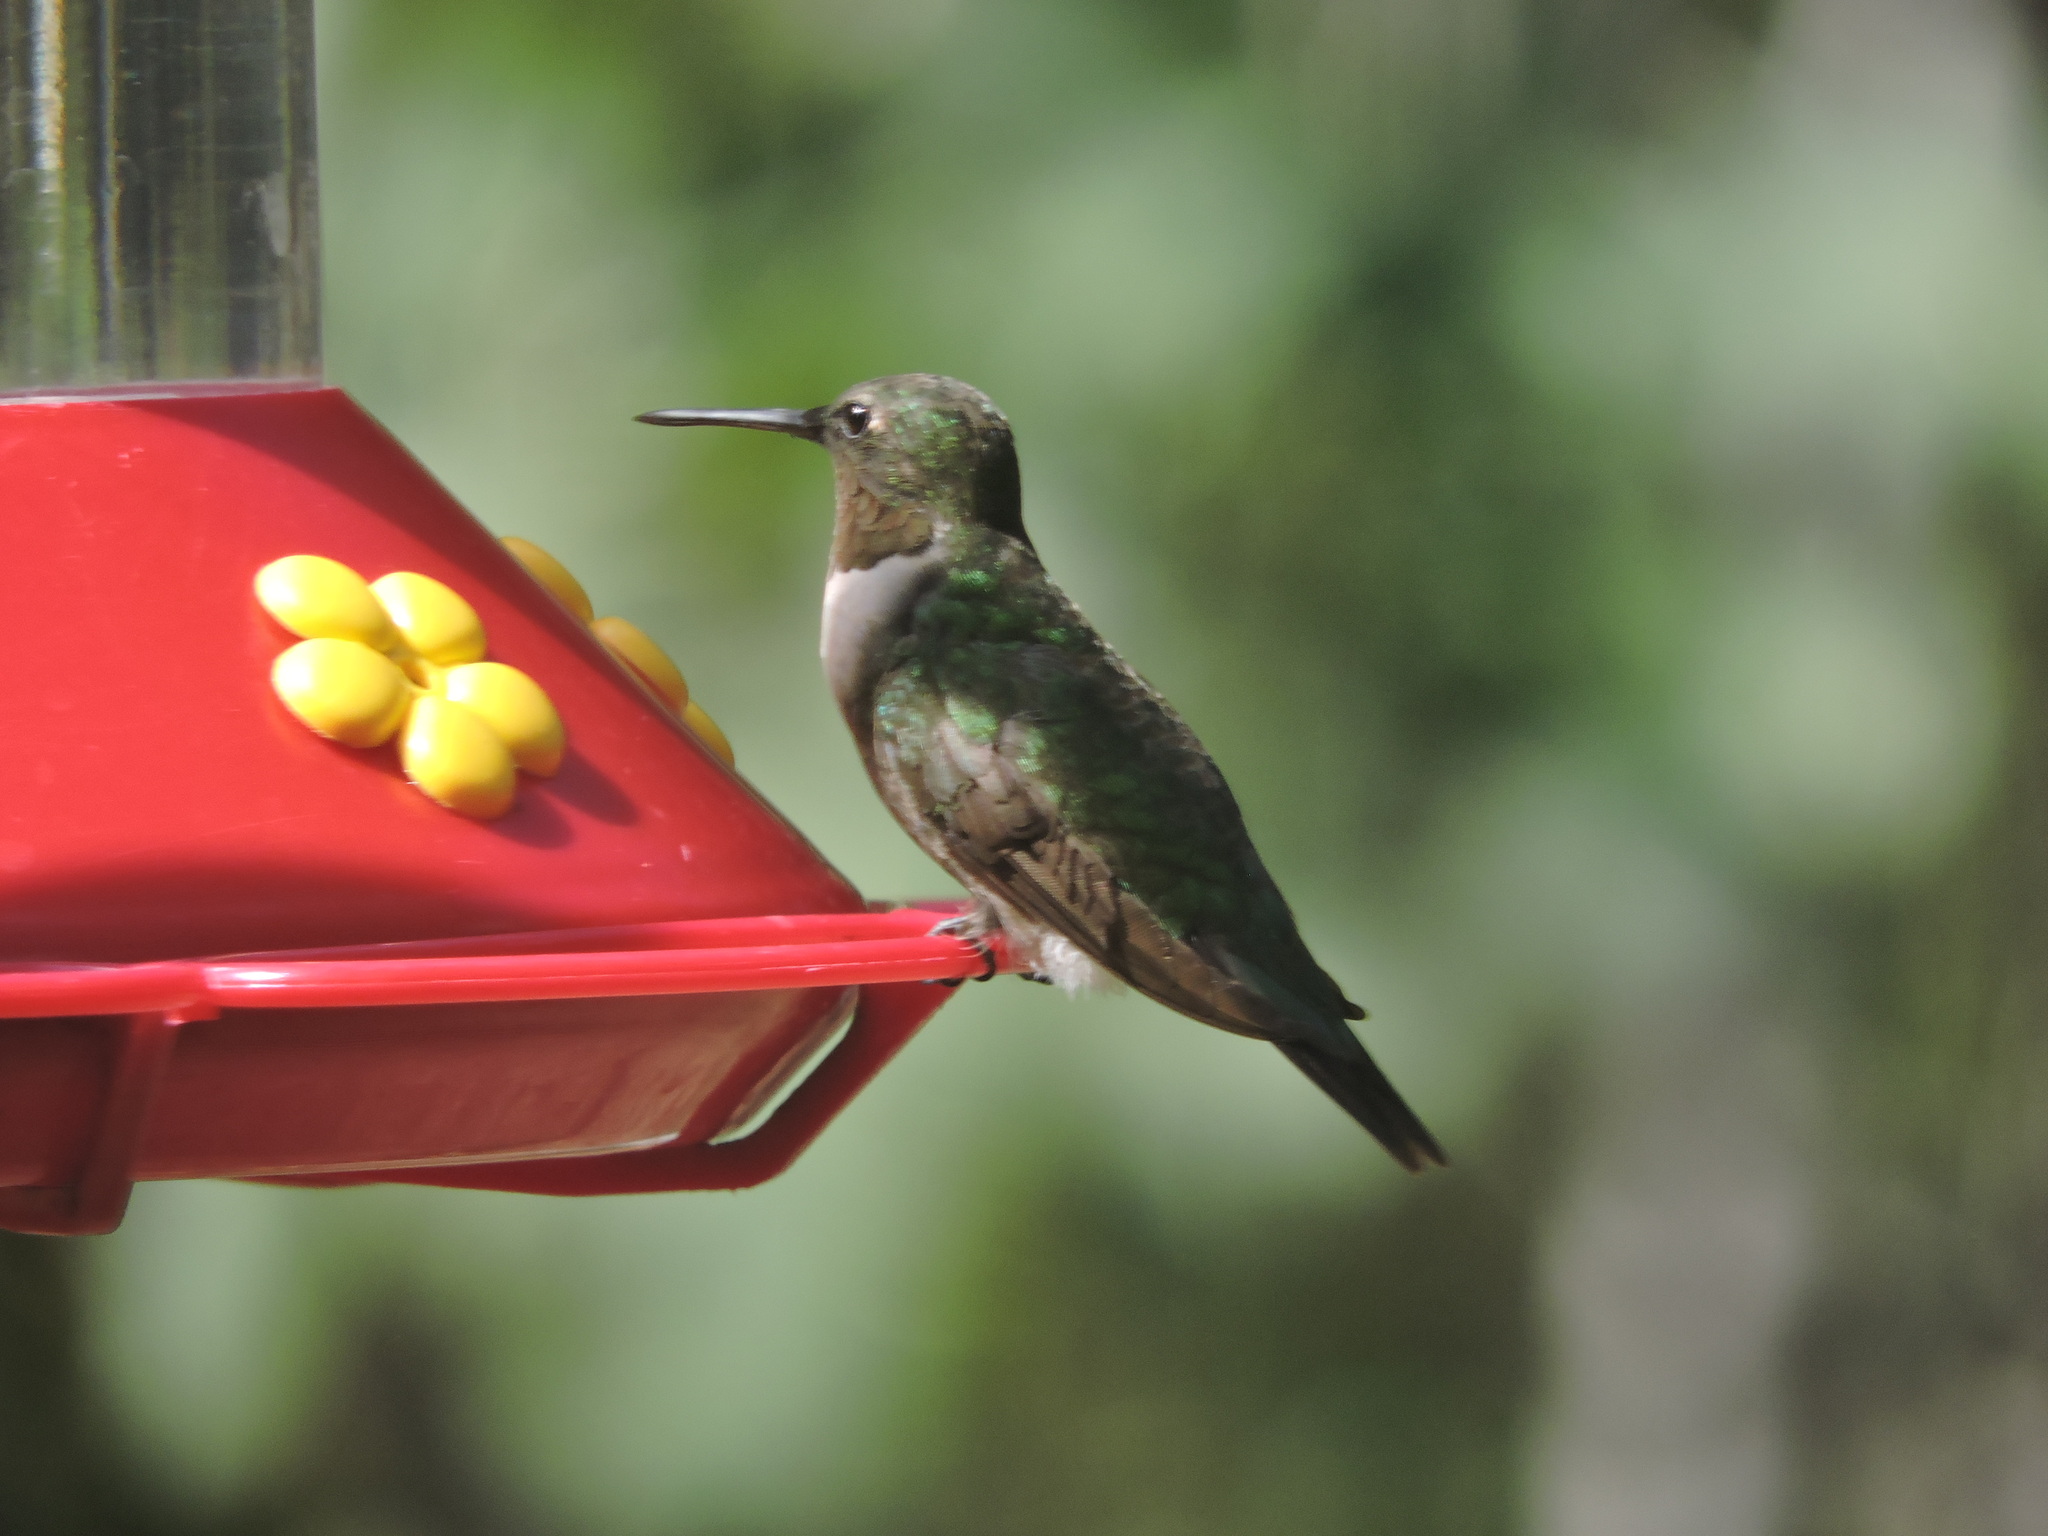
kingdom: Animalia
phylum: Chordata
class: Aves
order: Apodiformes
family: Trochilidae
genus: Archilochus
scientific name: Archilochus alexandri
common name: Black-chinned hummingbird
